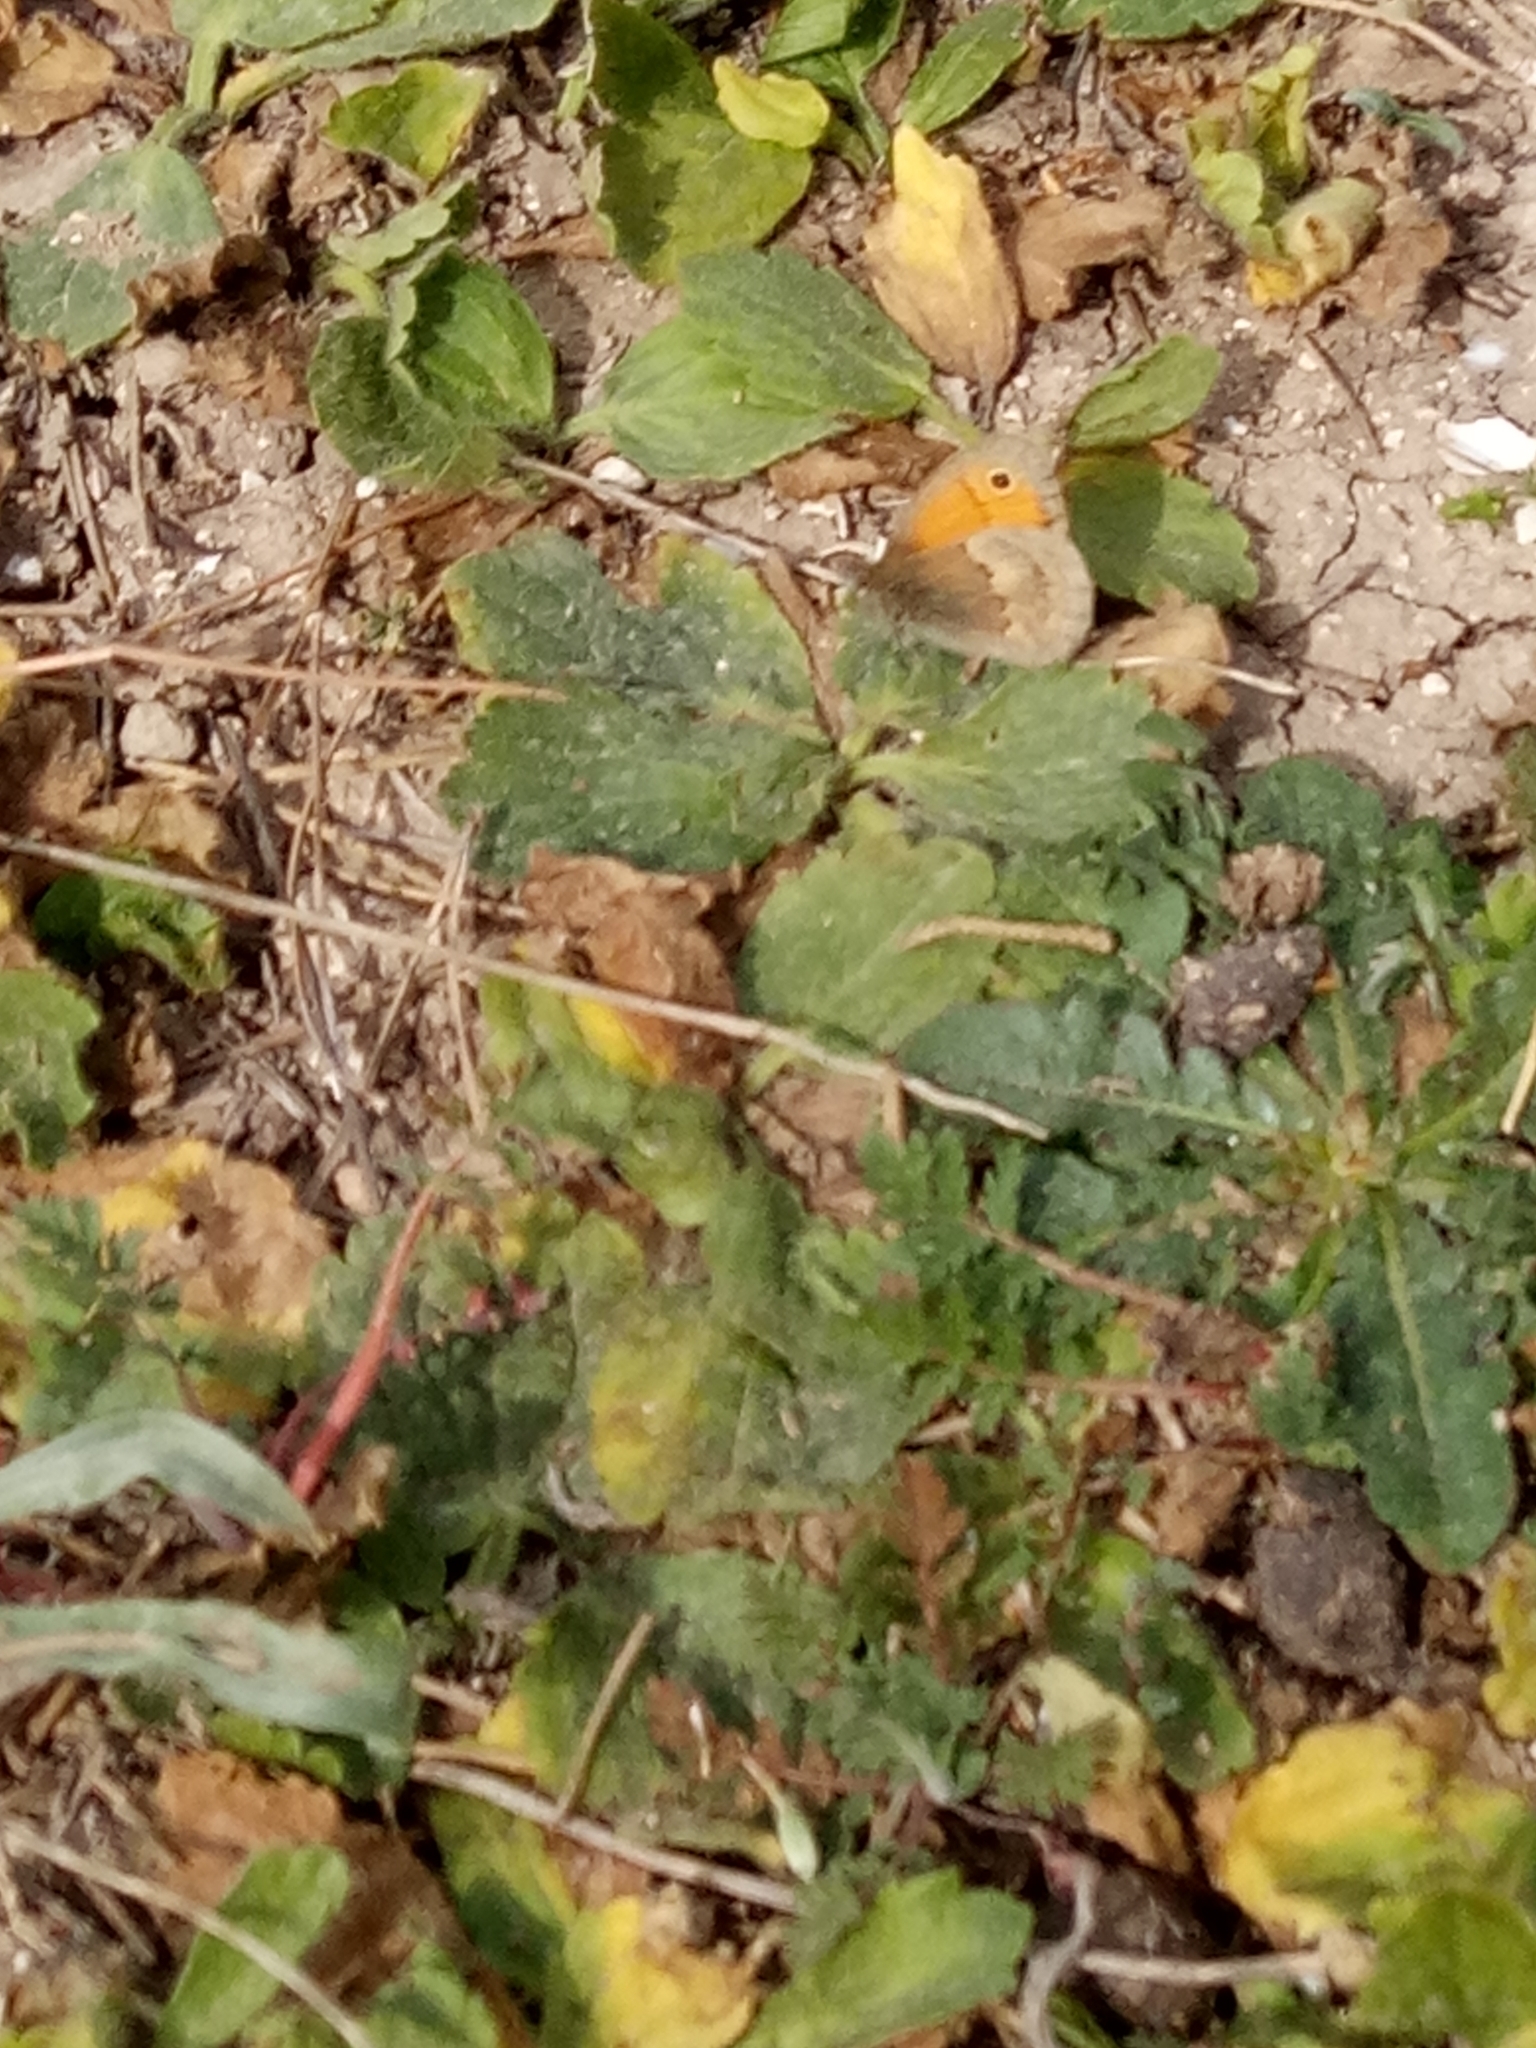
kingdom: Animalia
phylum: Arthropoda
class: Insecta
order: Lepidoptera
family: Nymphalidae
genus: Coenonympha
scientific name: Coenonympha pamphilus
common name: Small heath
